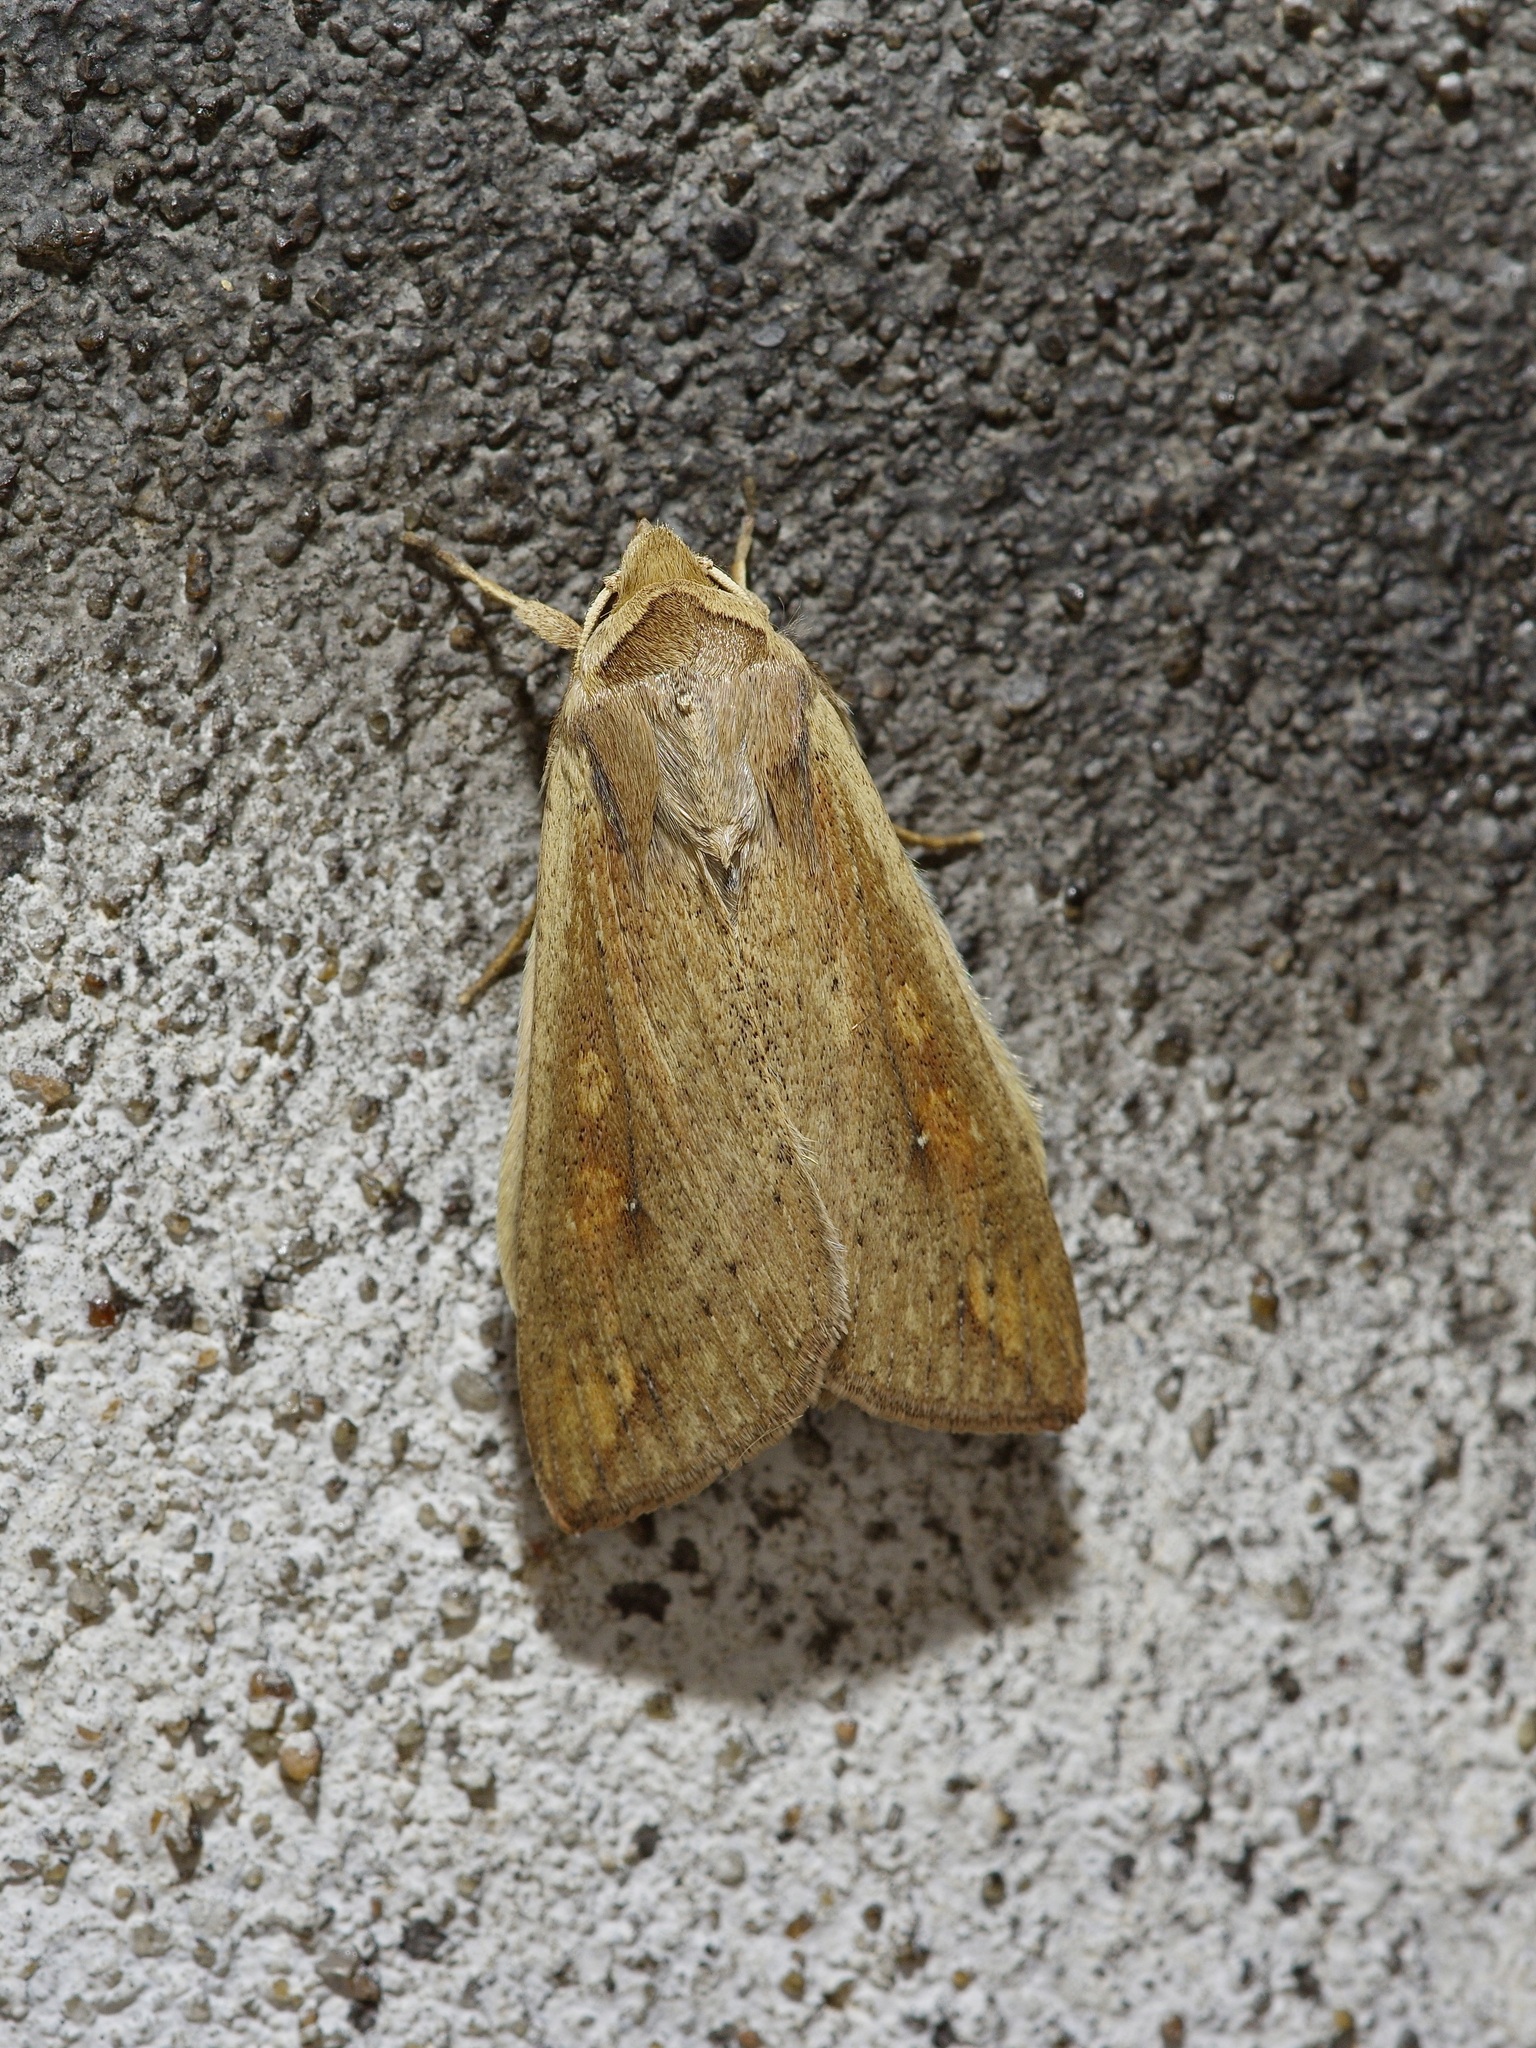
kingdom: Animalia
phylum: Arthropoda
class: Insecta
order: Lepidoptera
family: Noctuidae
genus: Mythimna
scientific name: Mythimna unipuncta
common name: White-speck
